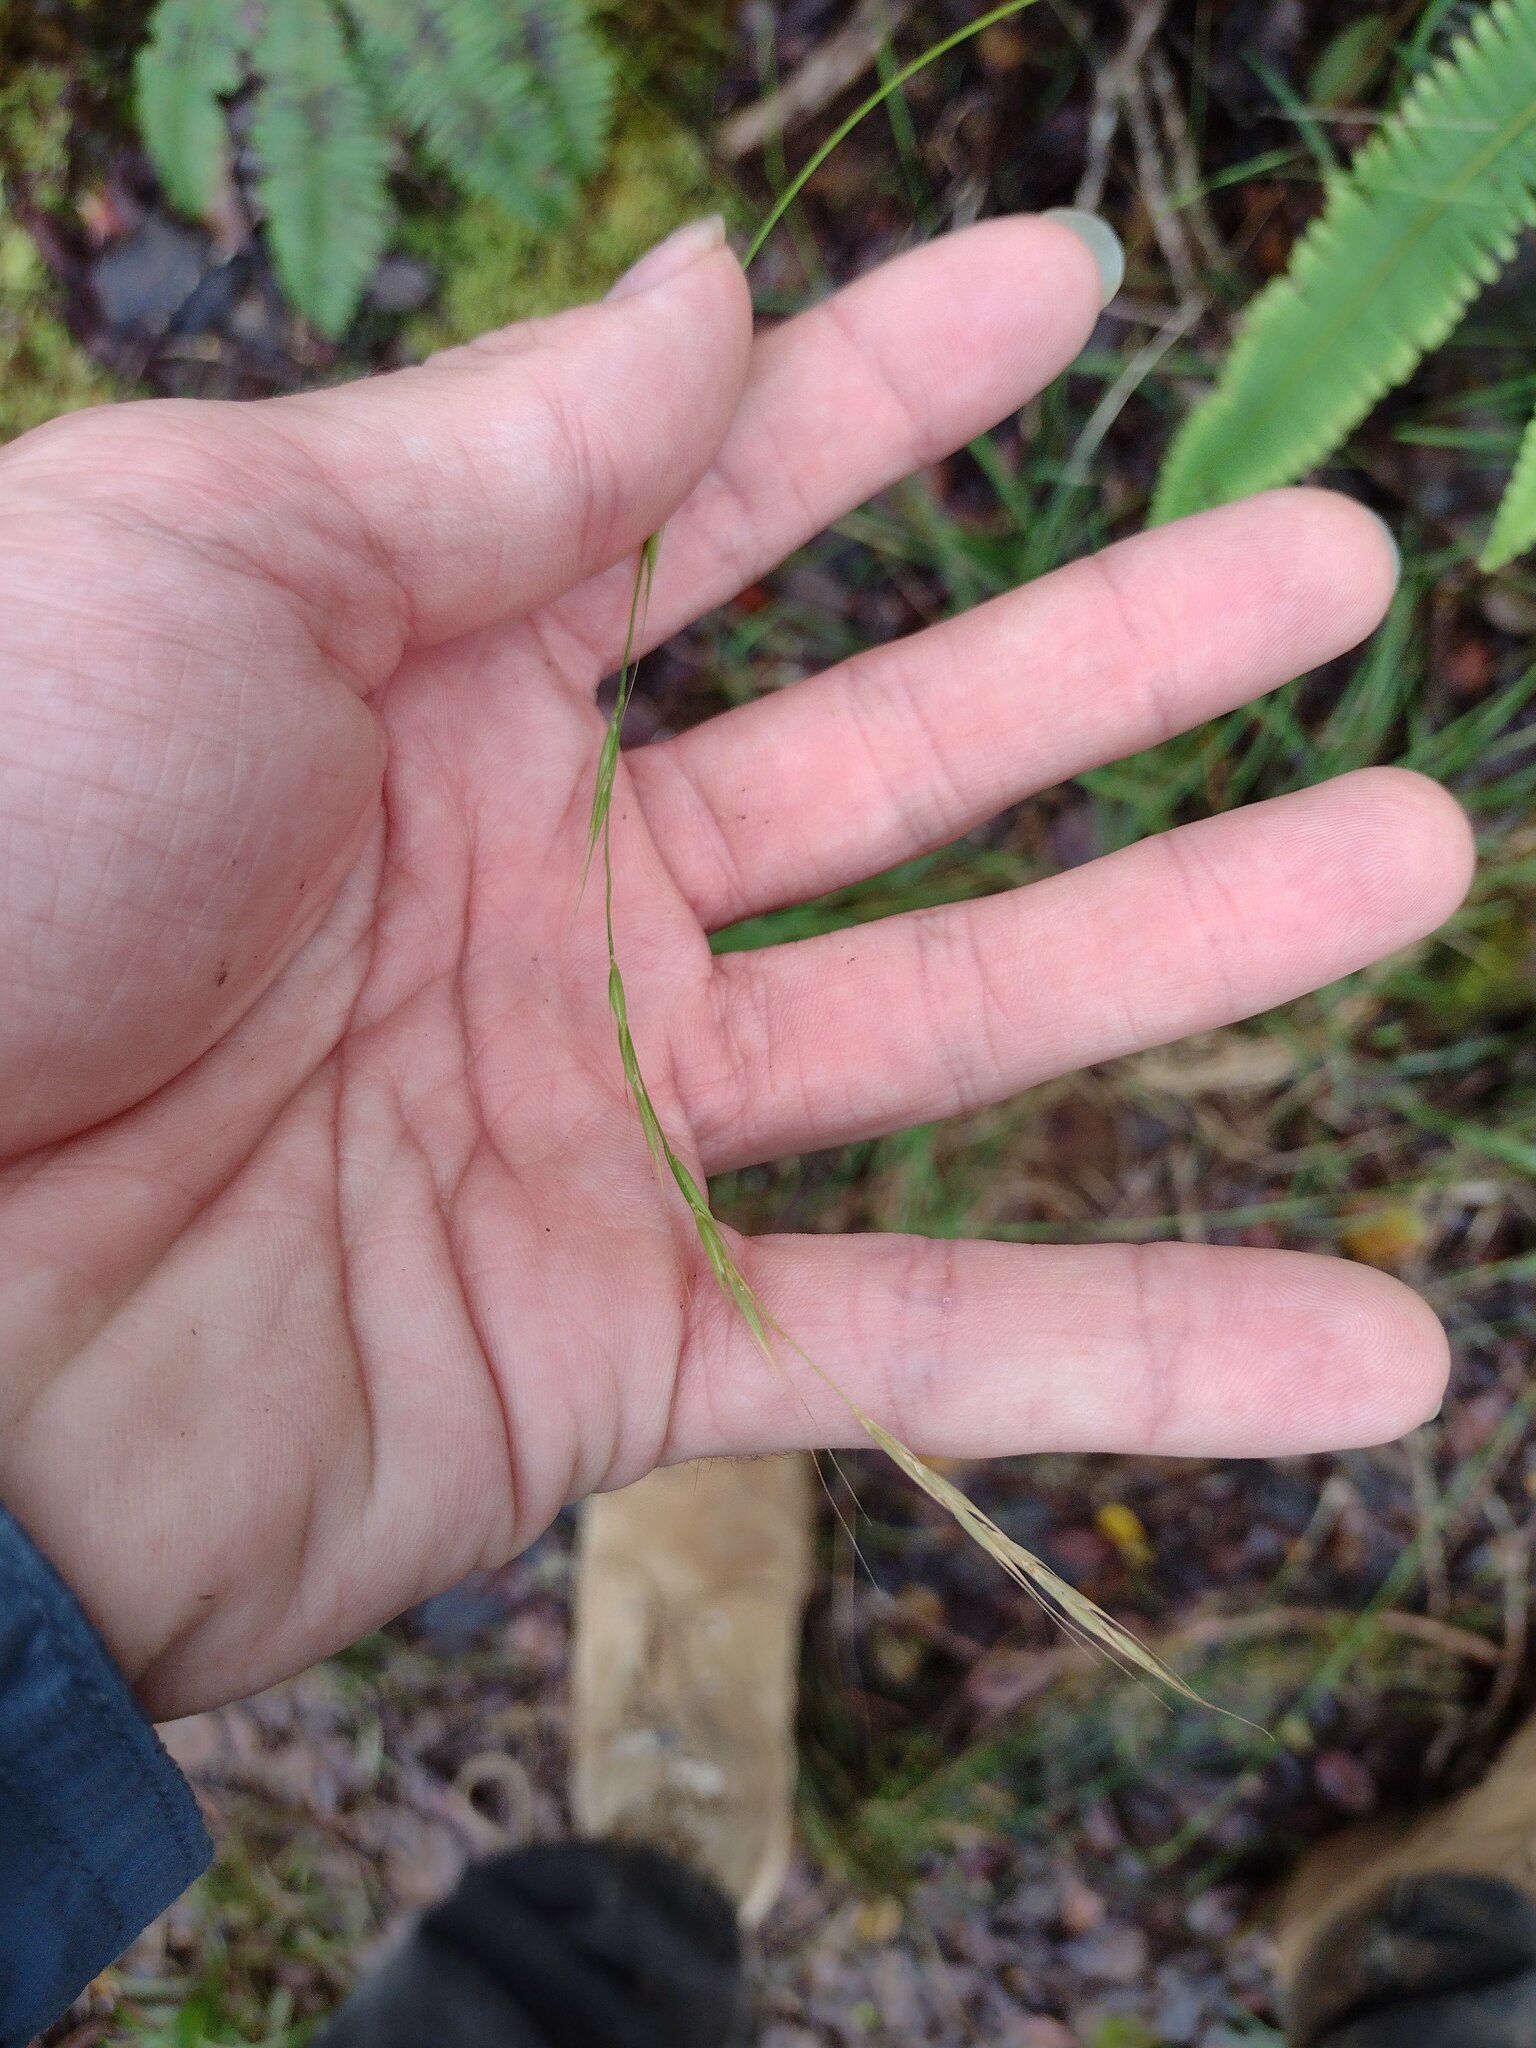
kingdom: Plantae
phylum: Tracheophyta
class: Liliopsida
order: Poales
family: Poaceae
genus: Microlaena
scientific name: Microlaena stipoides
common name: Meadow ricegrass
